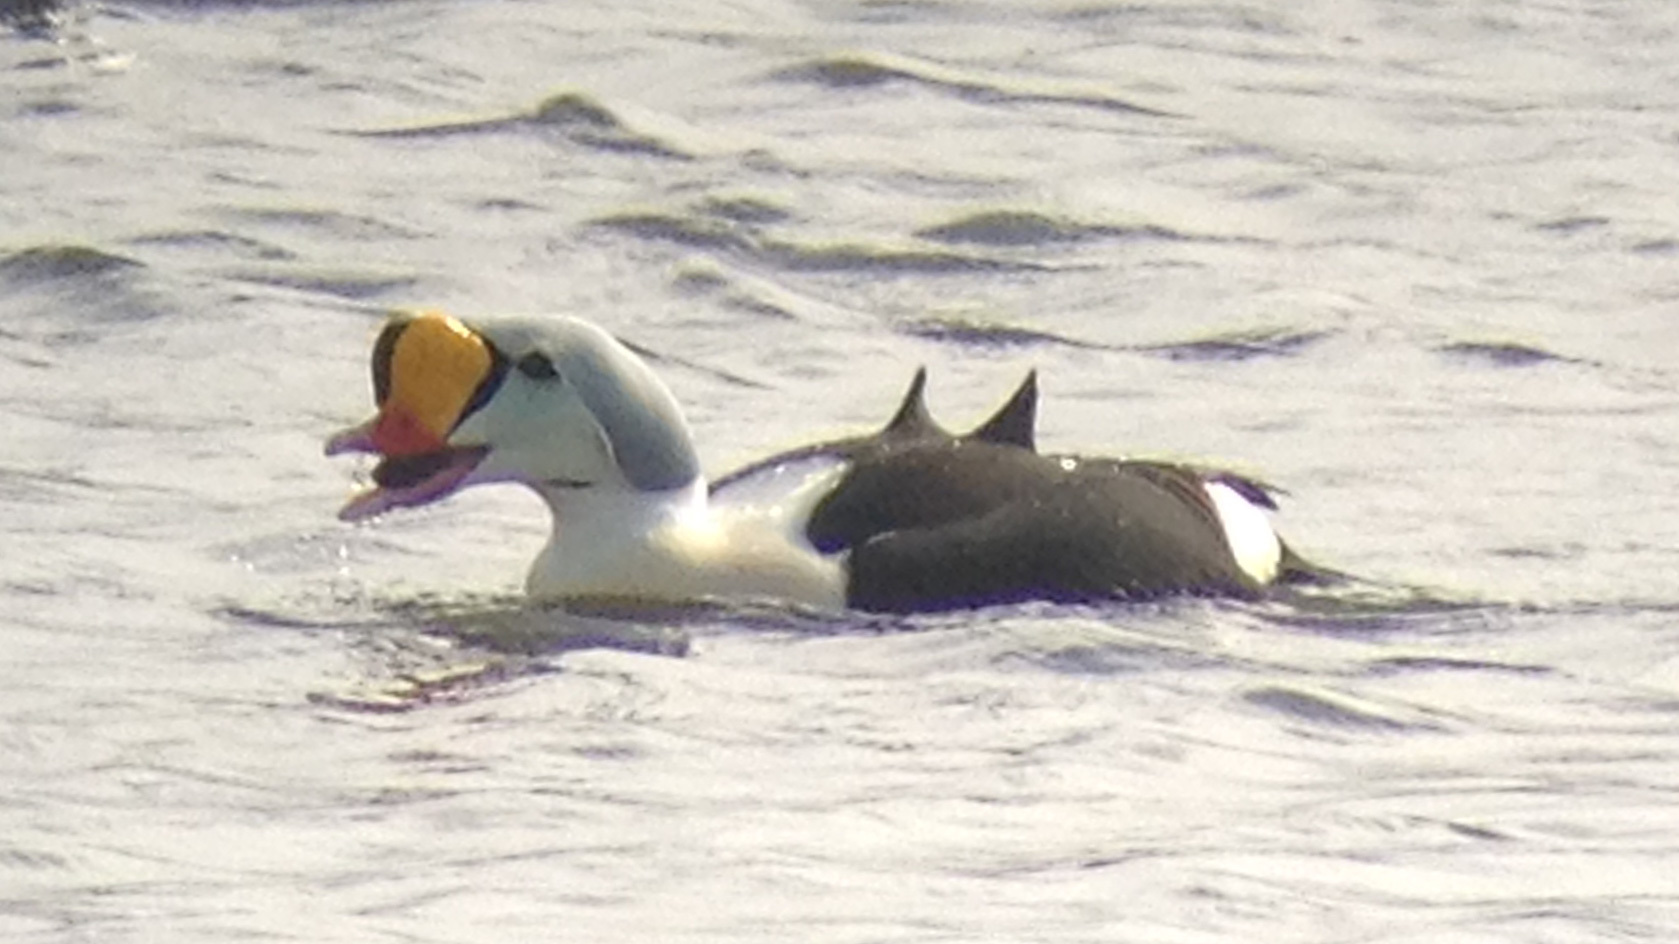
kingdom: Animalia
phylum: Chordata
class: Aves
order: Anseriformes
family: Anatidae
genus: Somateria
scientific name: Somateria spectabilis
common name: King eider
